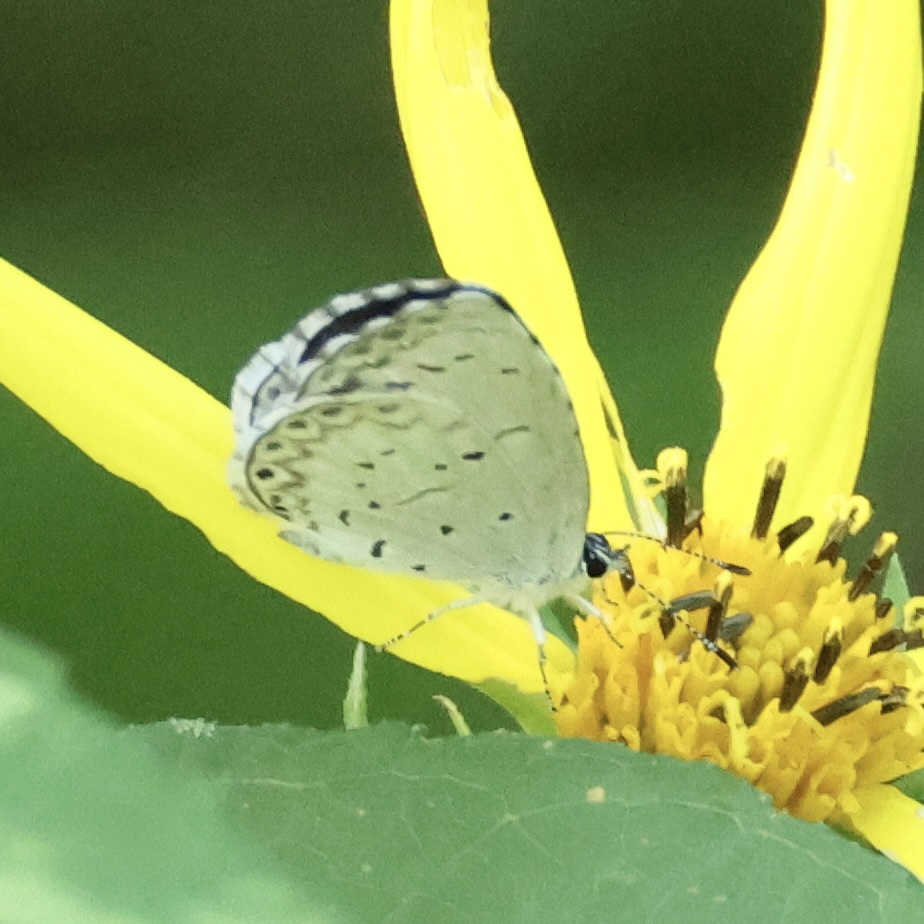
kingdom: Animalia
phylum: Arthropoda
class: Insecta
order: Lepidoptera
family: Lycaenidae
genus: Cyaniris
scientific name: Cyaniris neglecta
